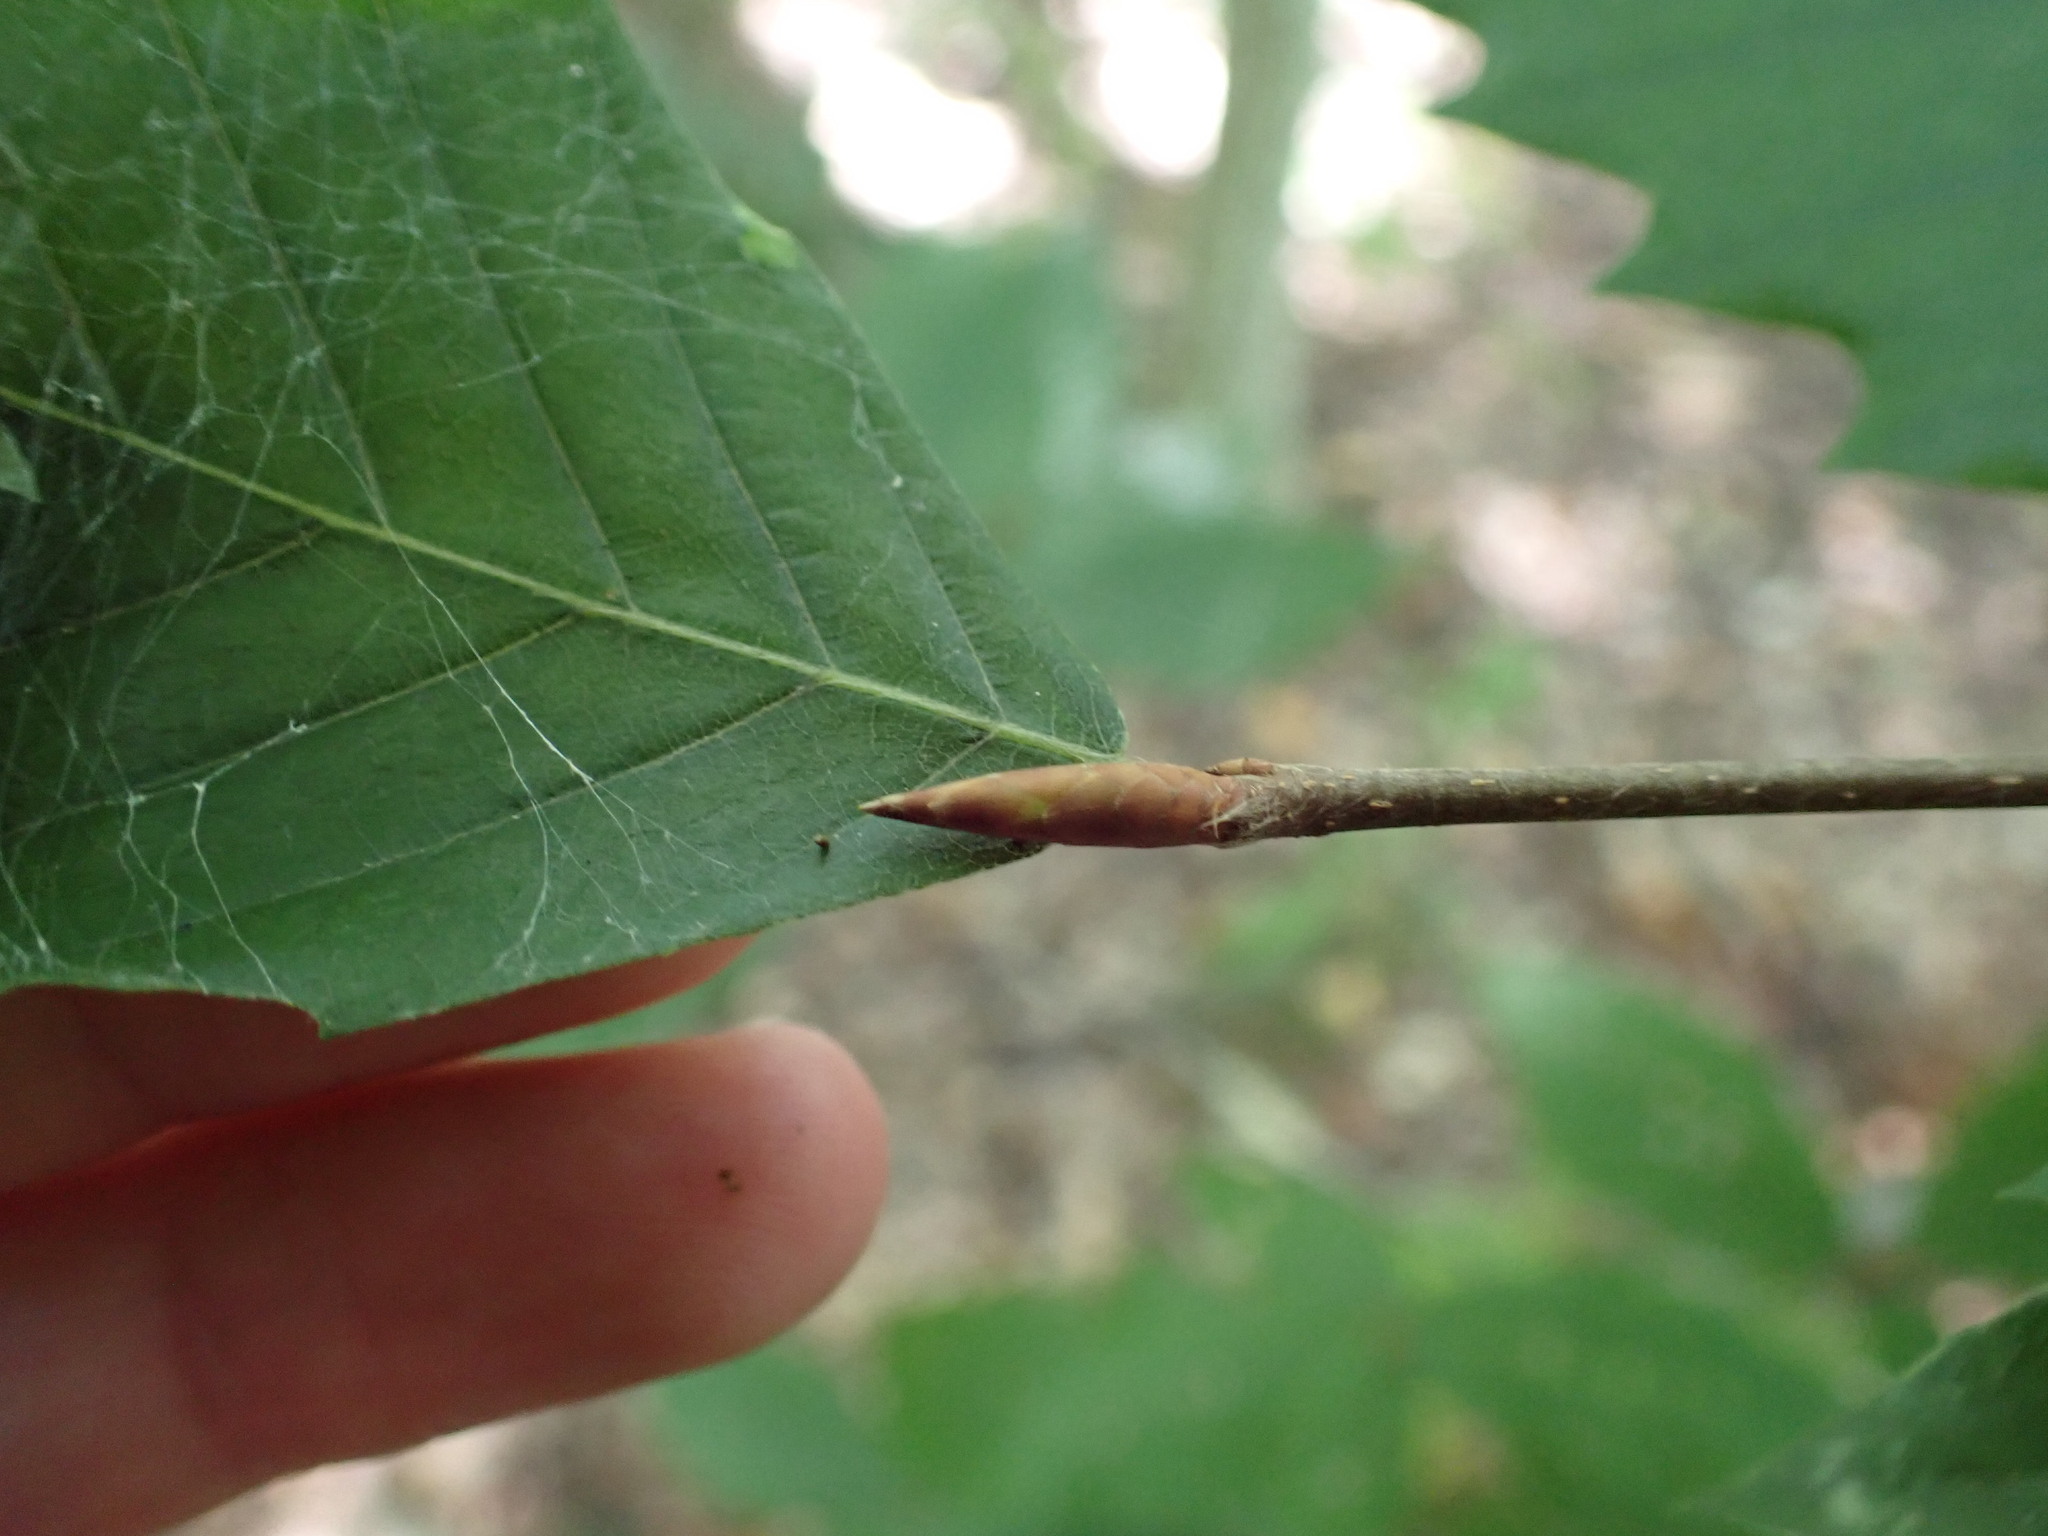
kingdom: Plantae
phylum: Tracheophyta
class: Magnoliopsida
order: Fagales
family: Fagaceae
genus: Fagus
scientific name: Fagus grandifolia
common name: American beech
